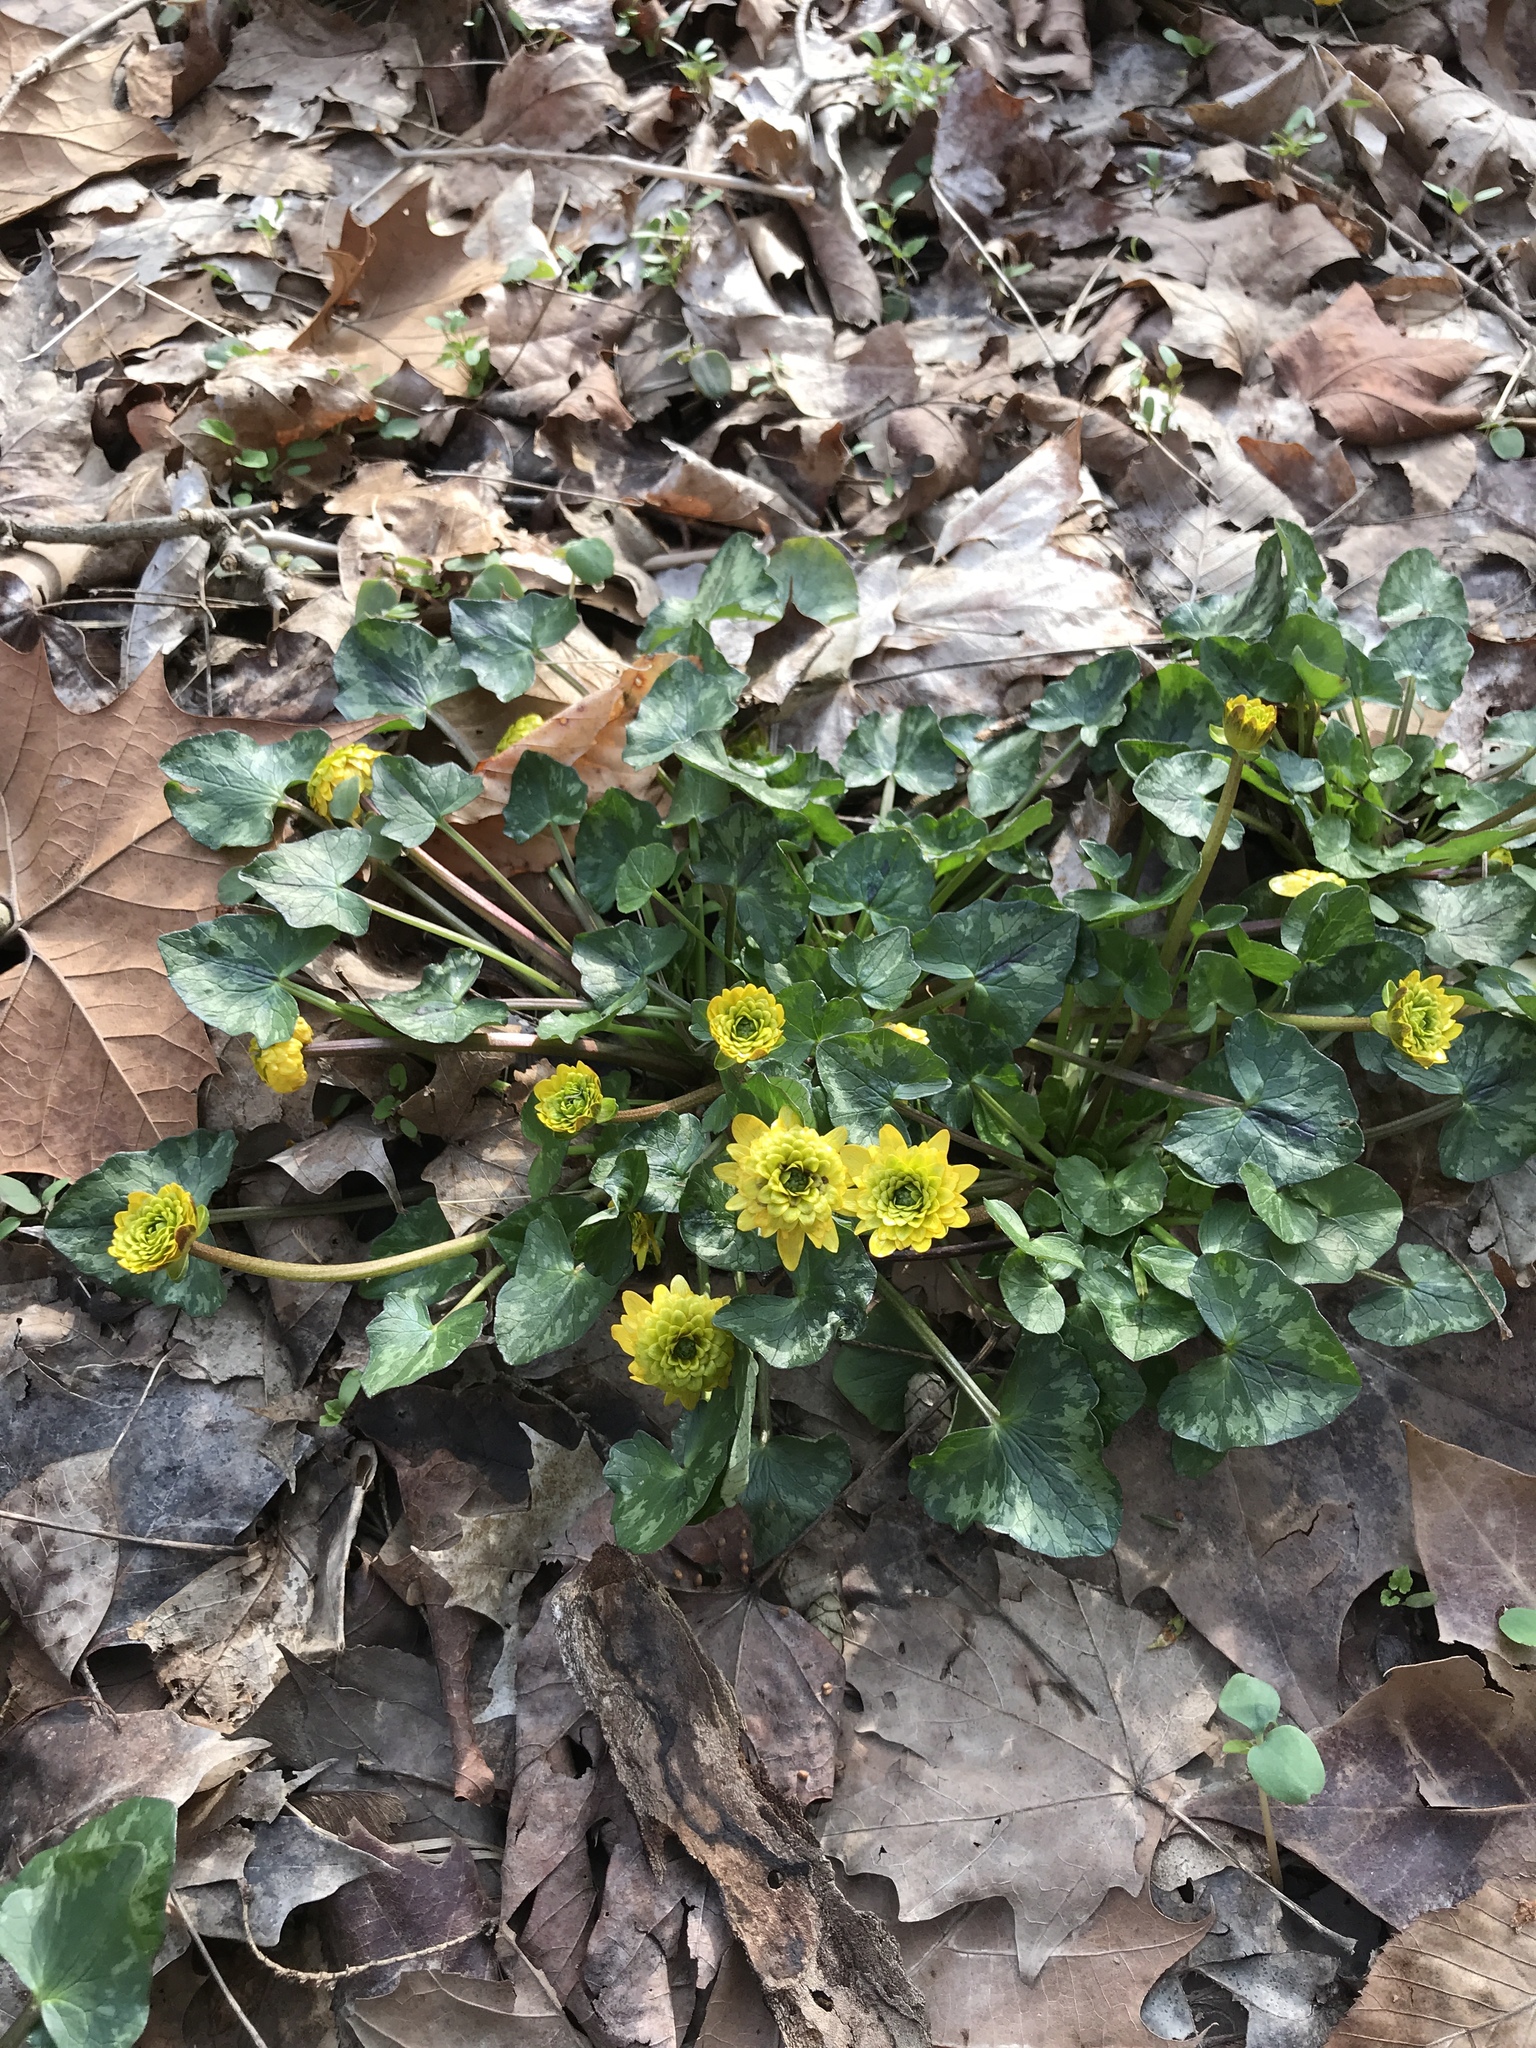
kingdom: Plantae
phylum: Tracheophyta
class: Magnoliopsida
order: Ranunculales
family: Ranunculaceae
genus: Ficaria
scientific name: Ficaria verna
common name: Lesser celandine
